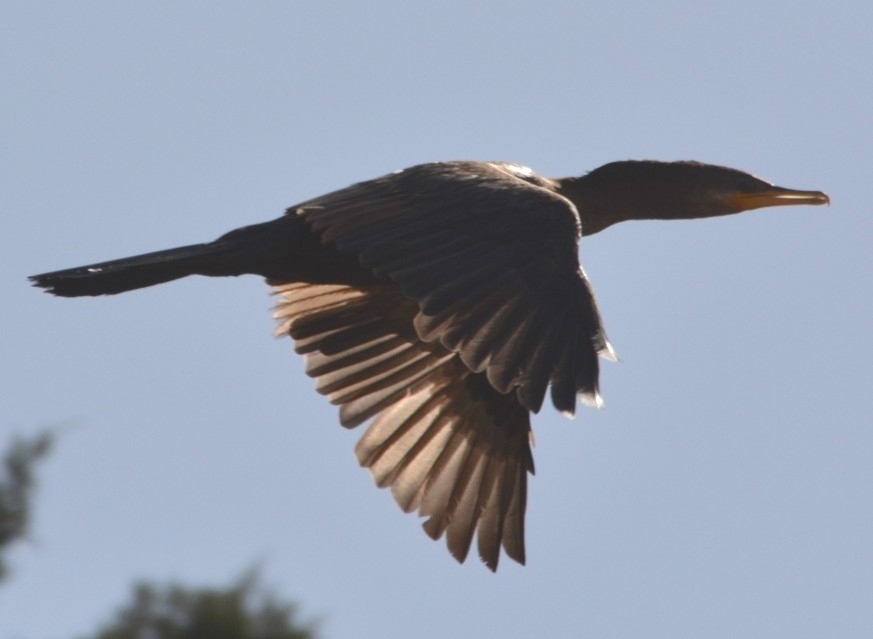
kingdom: Animalia
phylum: Chordata
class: Aves
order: Suliformes
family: Phalacrocoracidae
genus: Phalacrocorax
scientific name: Phalacrocorax brasilianus
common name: Neotropic cormorant
